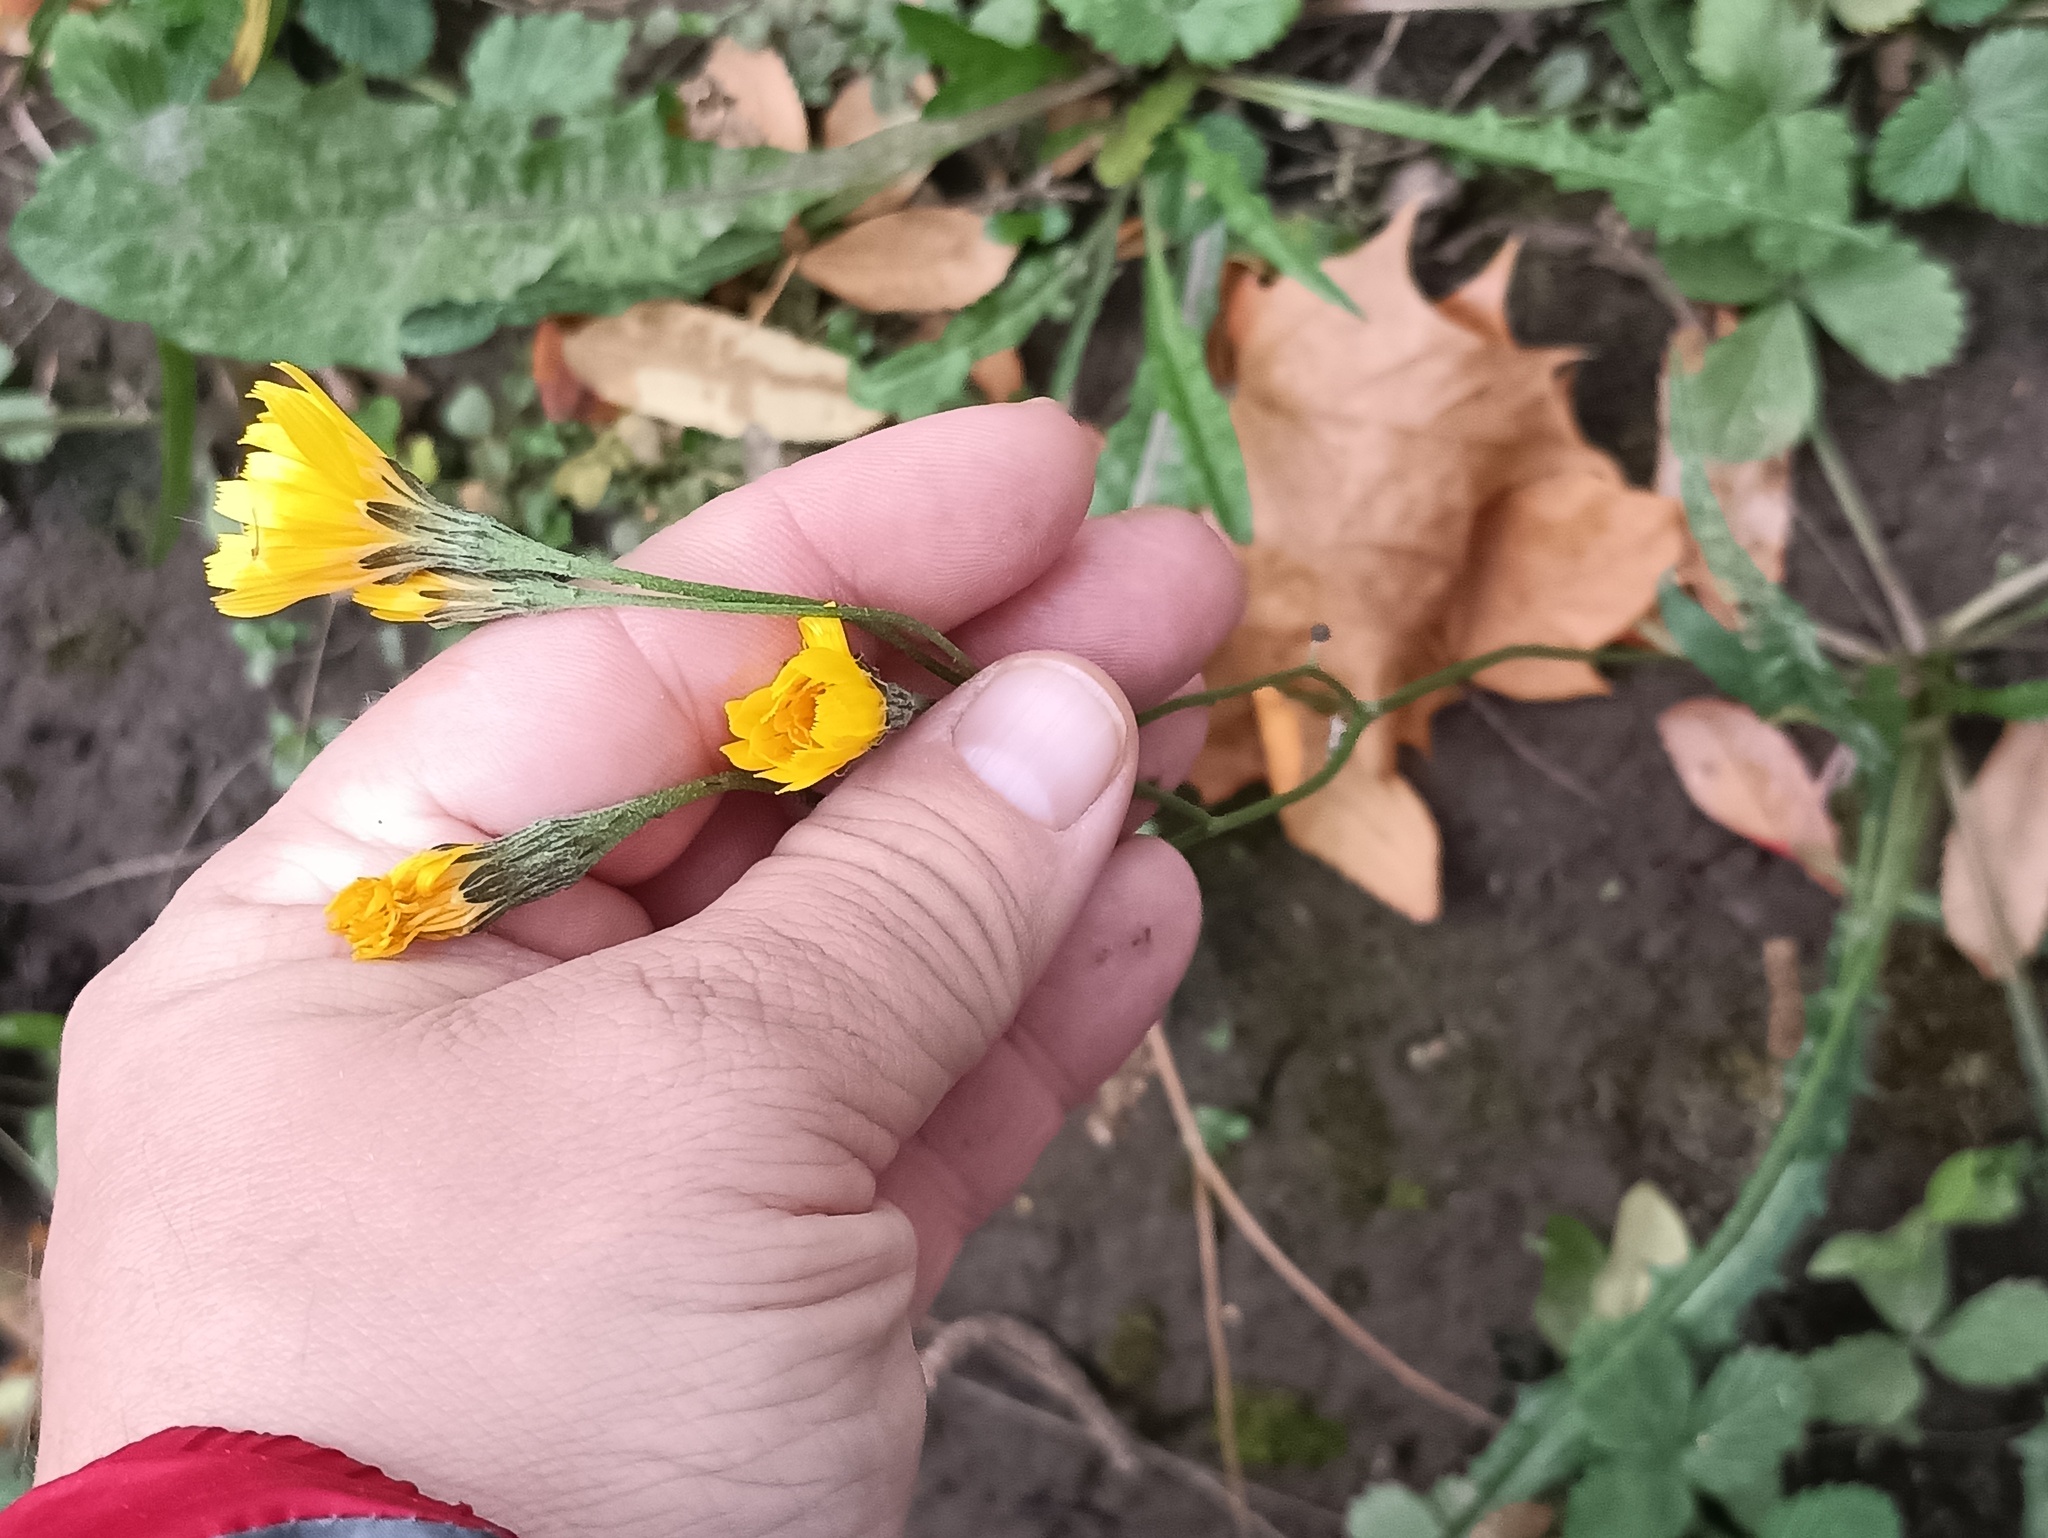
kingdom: Plantae
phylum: Tracheophyta
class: Magnoliopsida
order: Asterales
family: Asteraceae
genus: Scorzoneroides
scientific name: Scorzoneroides autumnalis
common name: Autumn hawkbit
